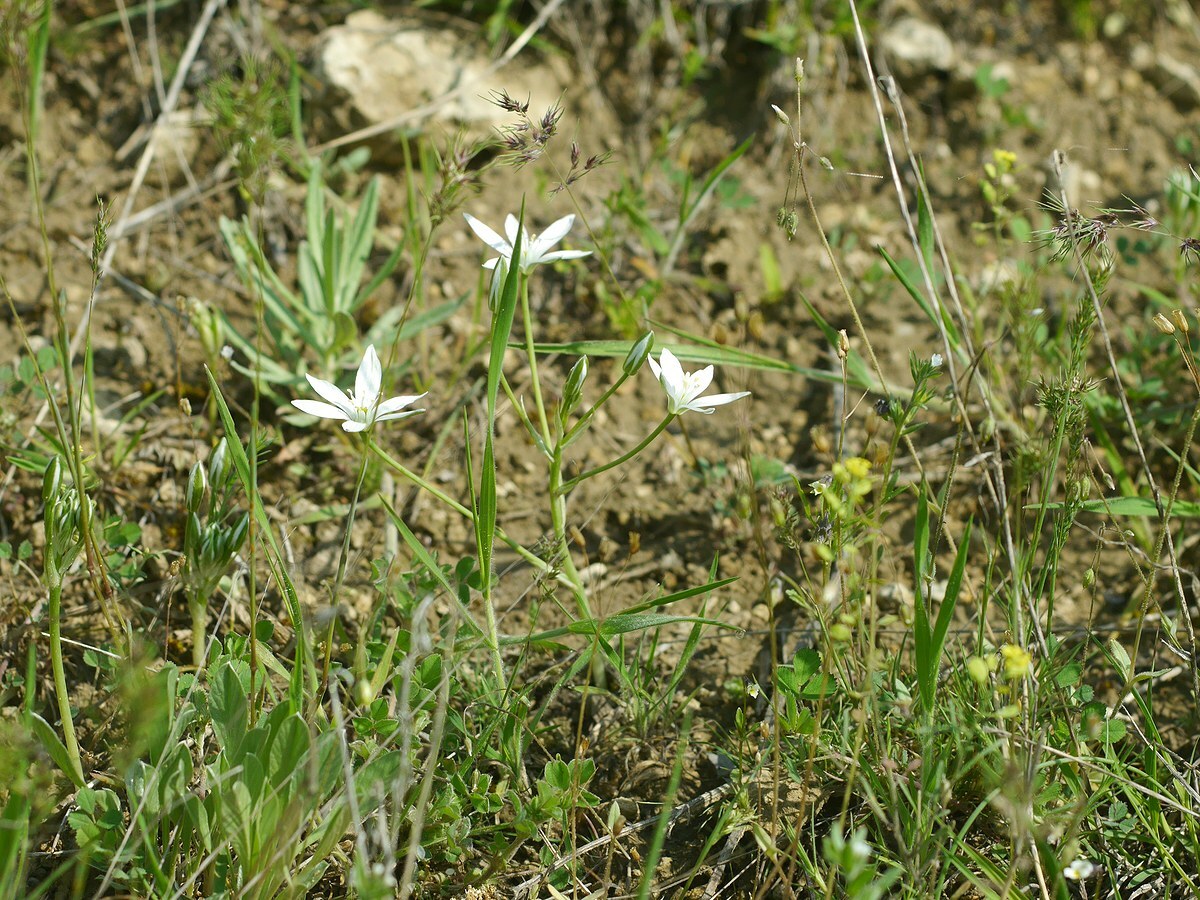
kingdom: Plantae
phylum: Tracheophyta
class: Liliopsida
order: Asparagales
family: Asparagaceae
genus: Ornithogalum
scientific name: Ornithogalum orthophyllum
